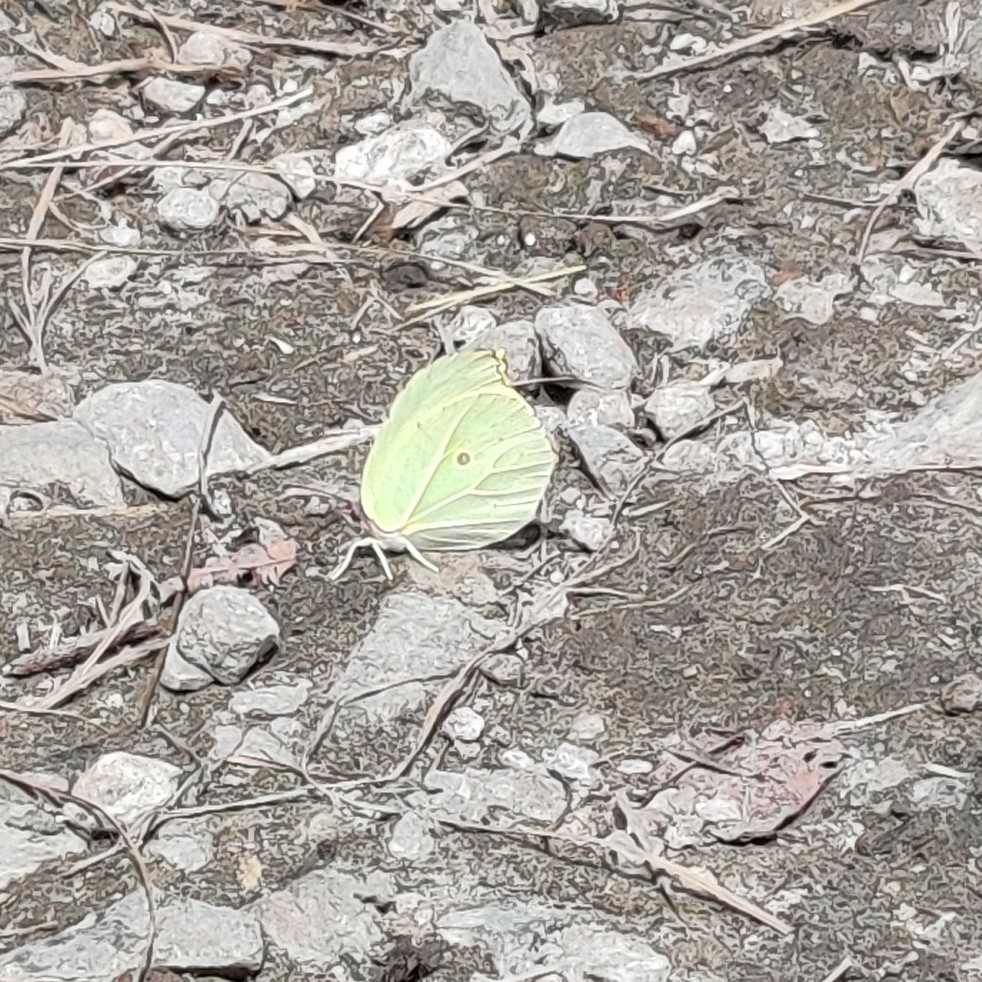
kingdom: Animalia
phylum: Arthropoda
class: Insecta
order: Lepidoptera
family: Pieridae
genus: Gonepteryx
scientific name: Gonepteryx
